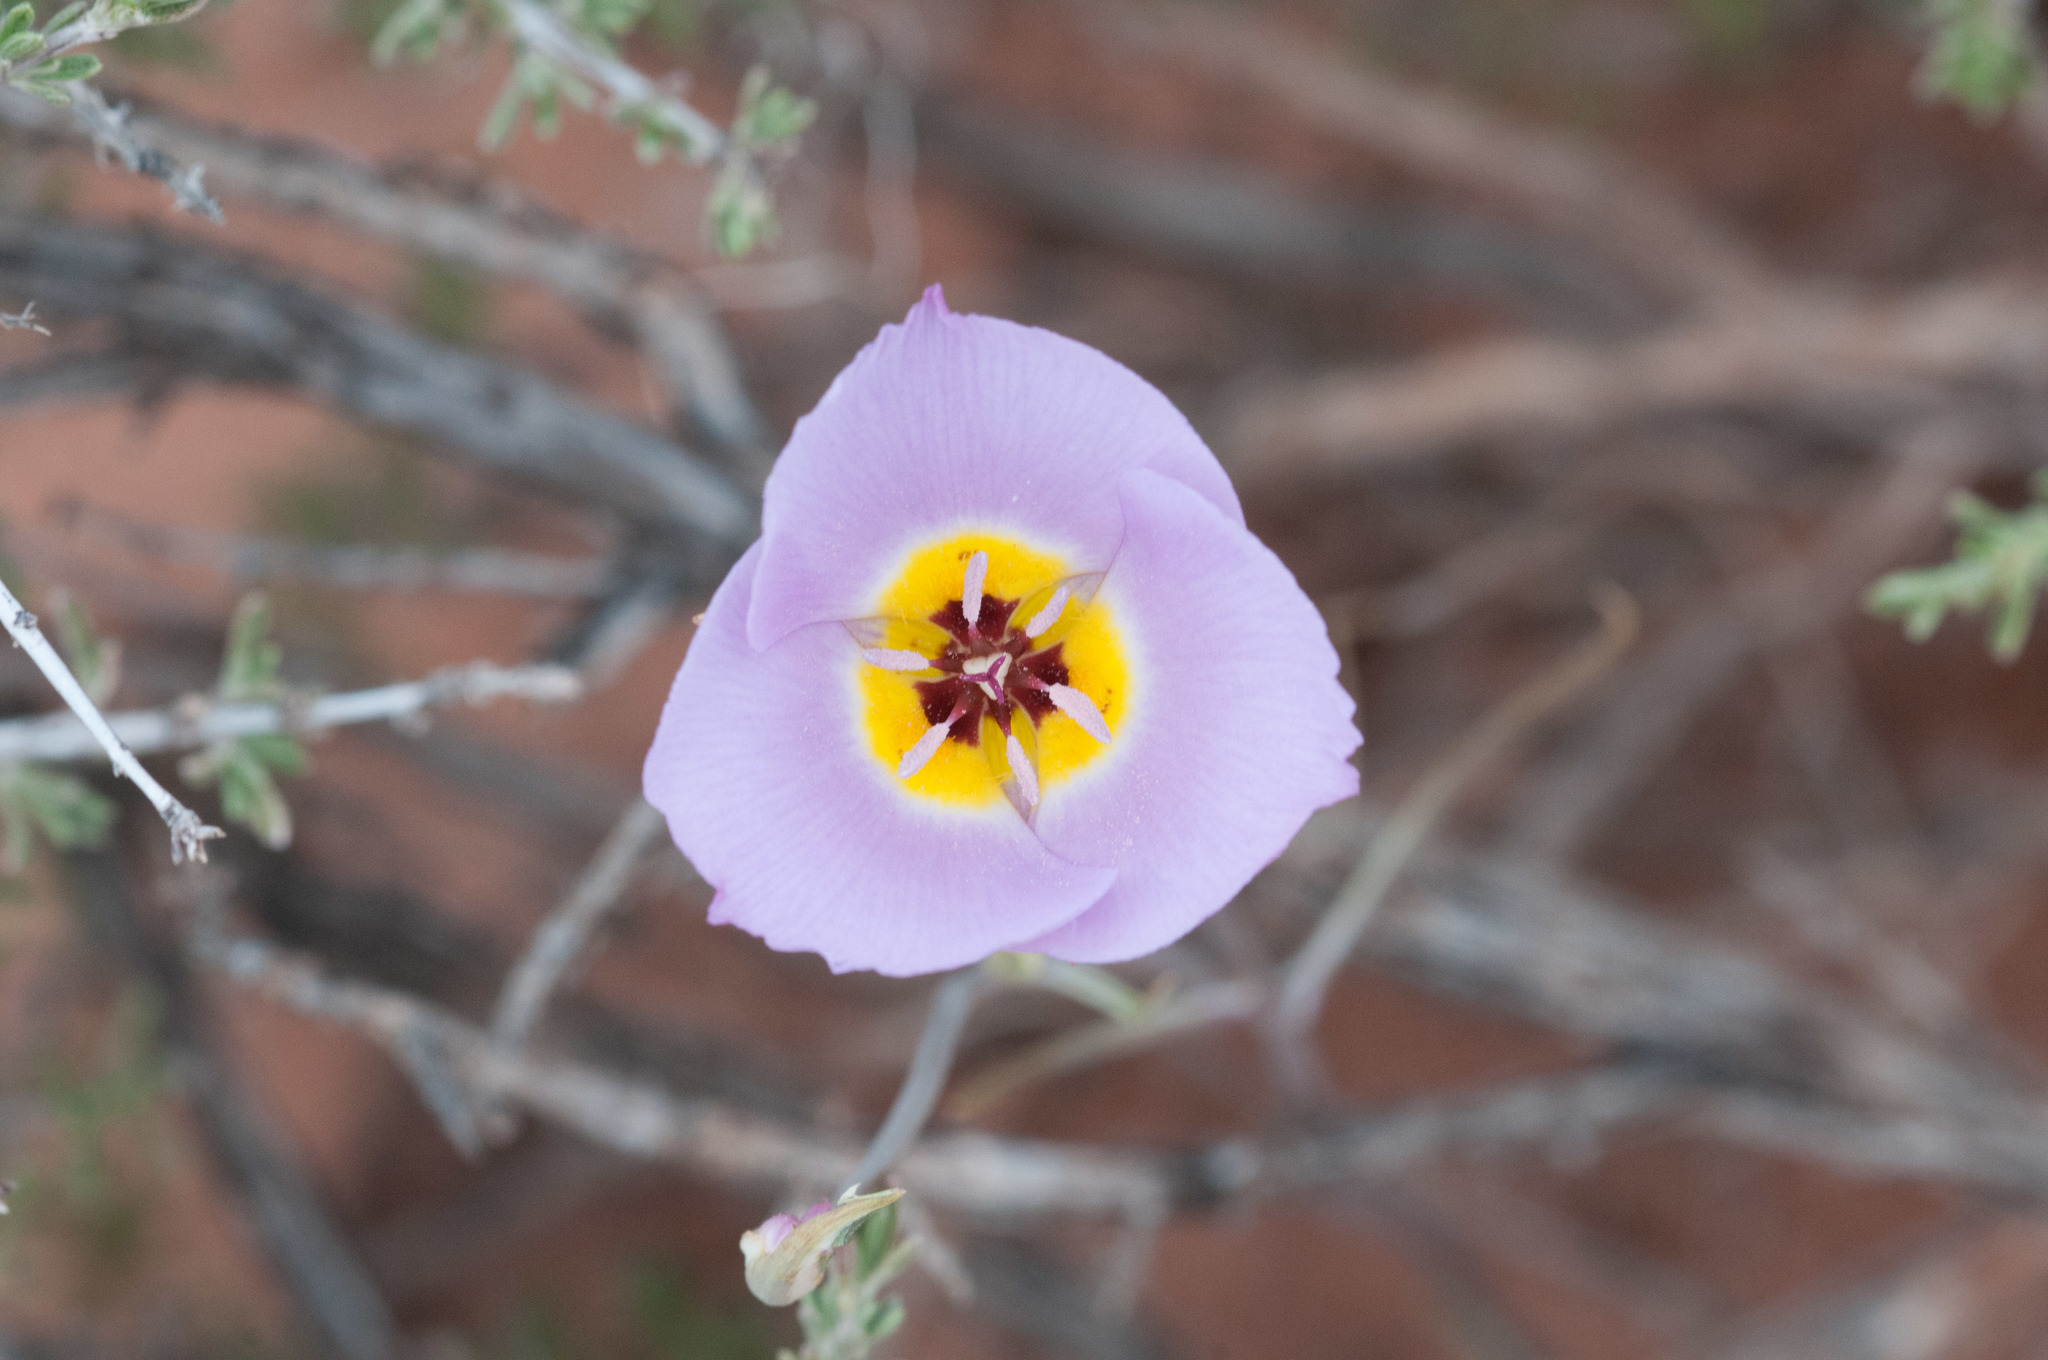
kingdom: Plantae
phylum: Tracheophyta
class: Liliopsida
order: Liliales
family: Liliaceae
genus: Calochortus
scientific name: Calochortus flexuosus
